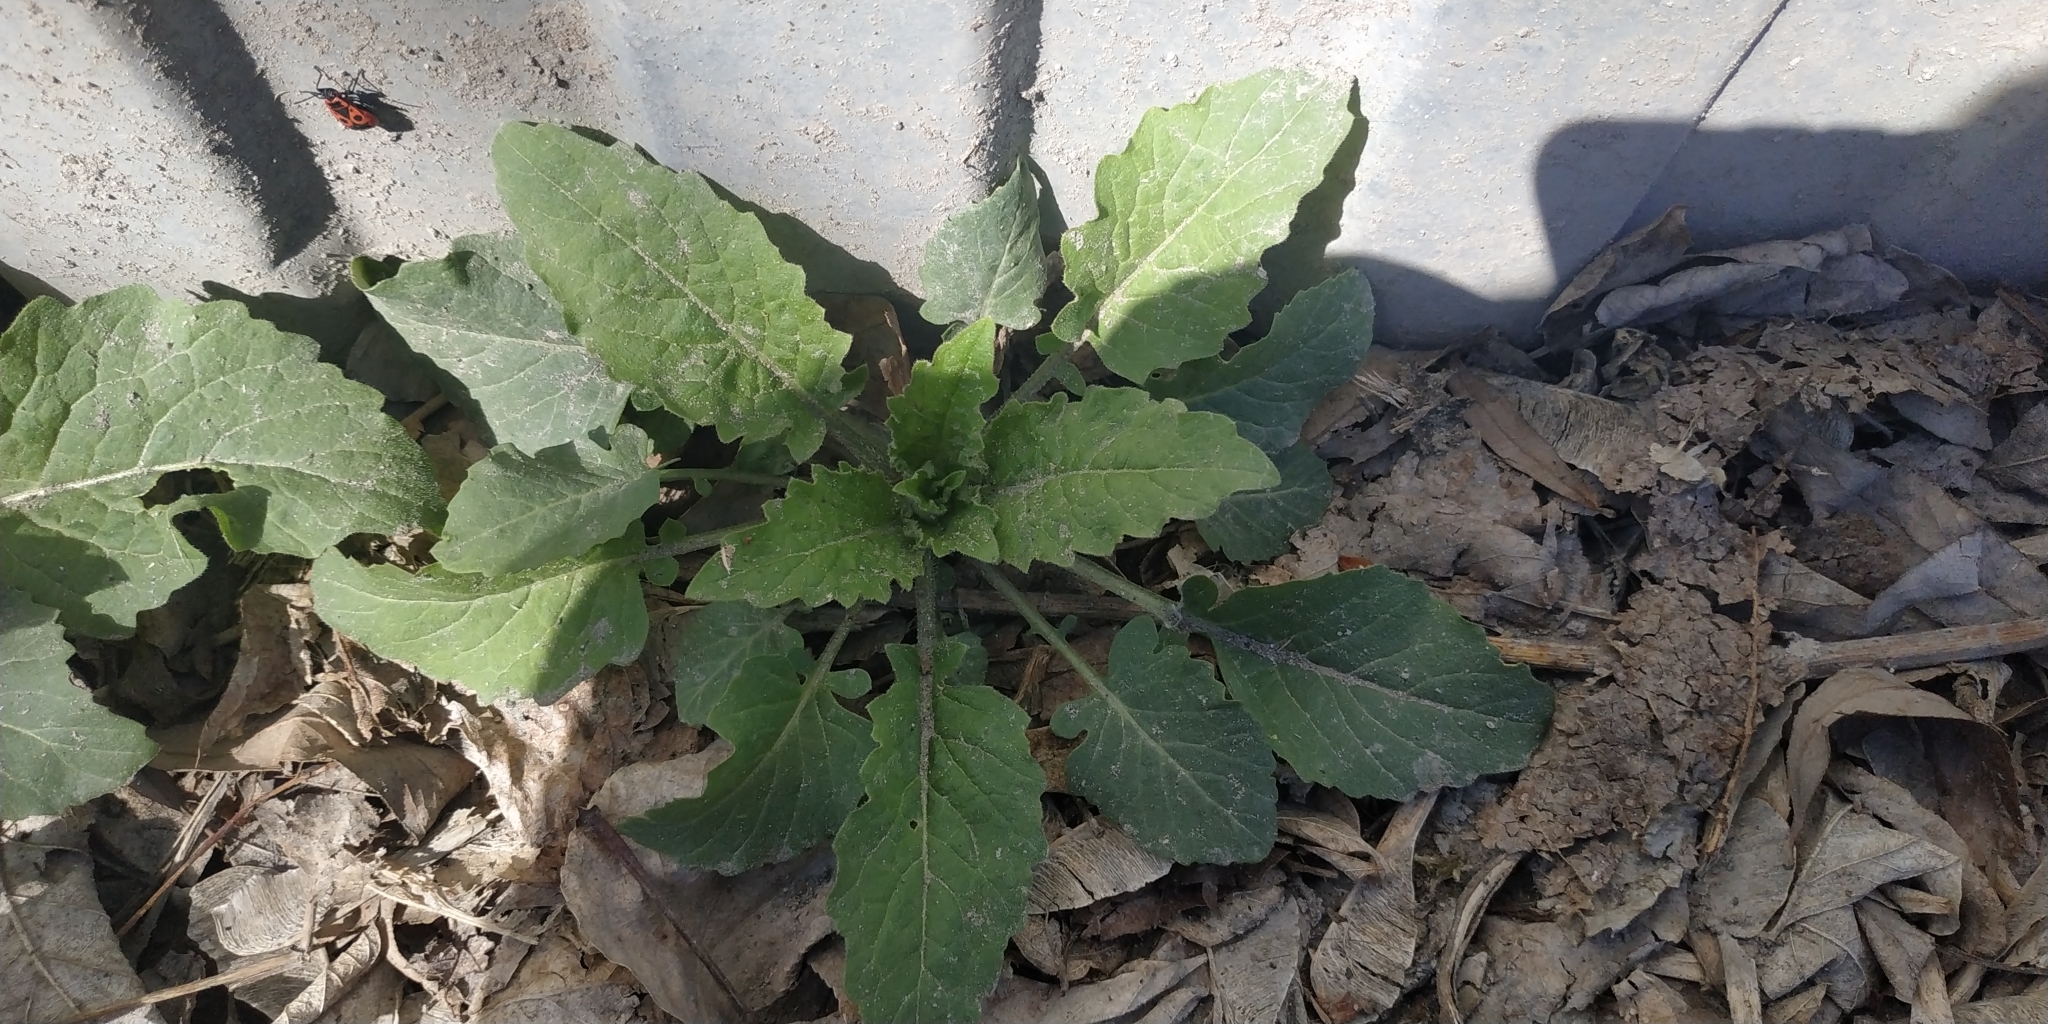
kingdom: Plantae
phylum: Tracheophyta
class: Magnoliopsida
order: Brassicales
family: Brassicaceae
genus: Catolobus
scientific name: Catolobus pendulus
